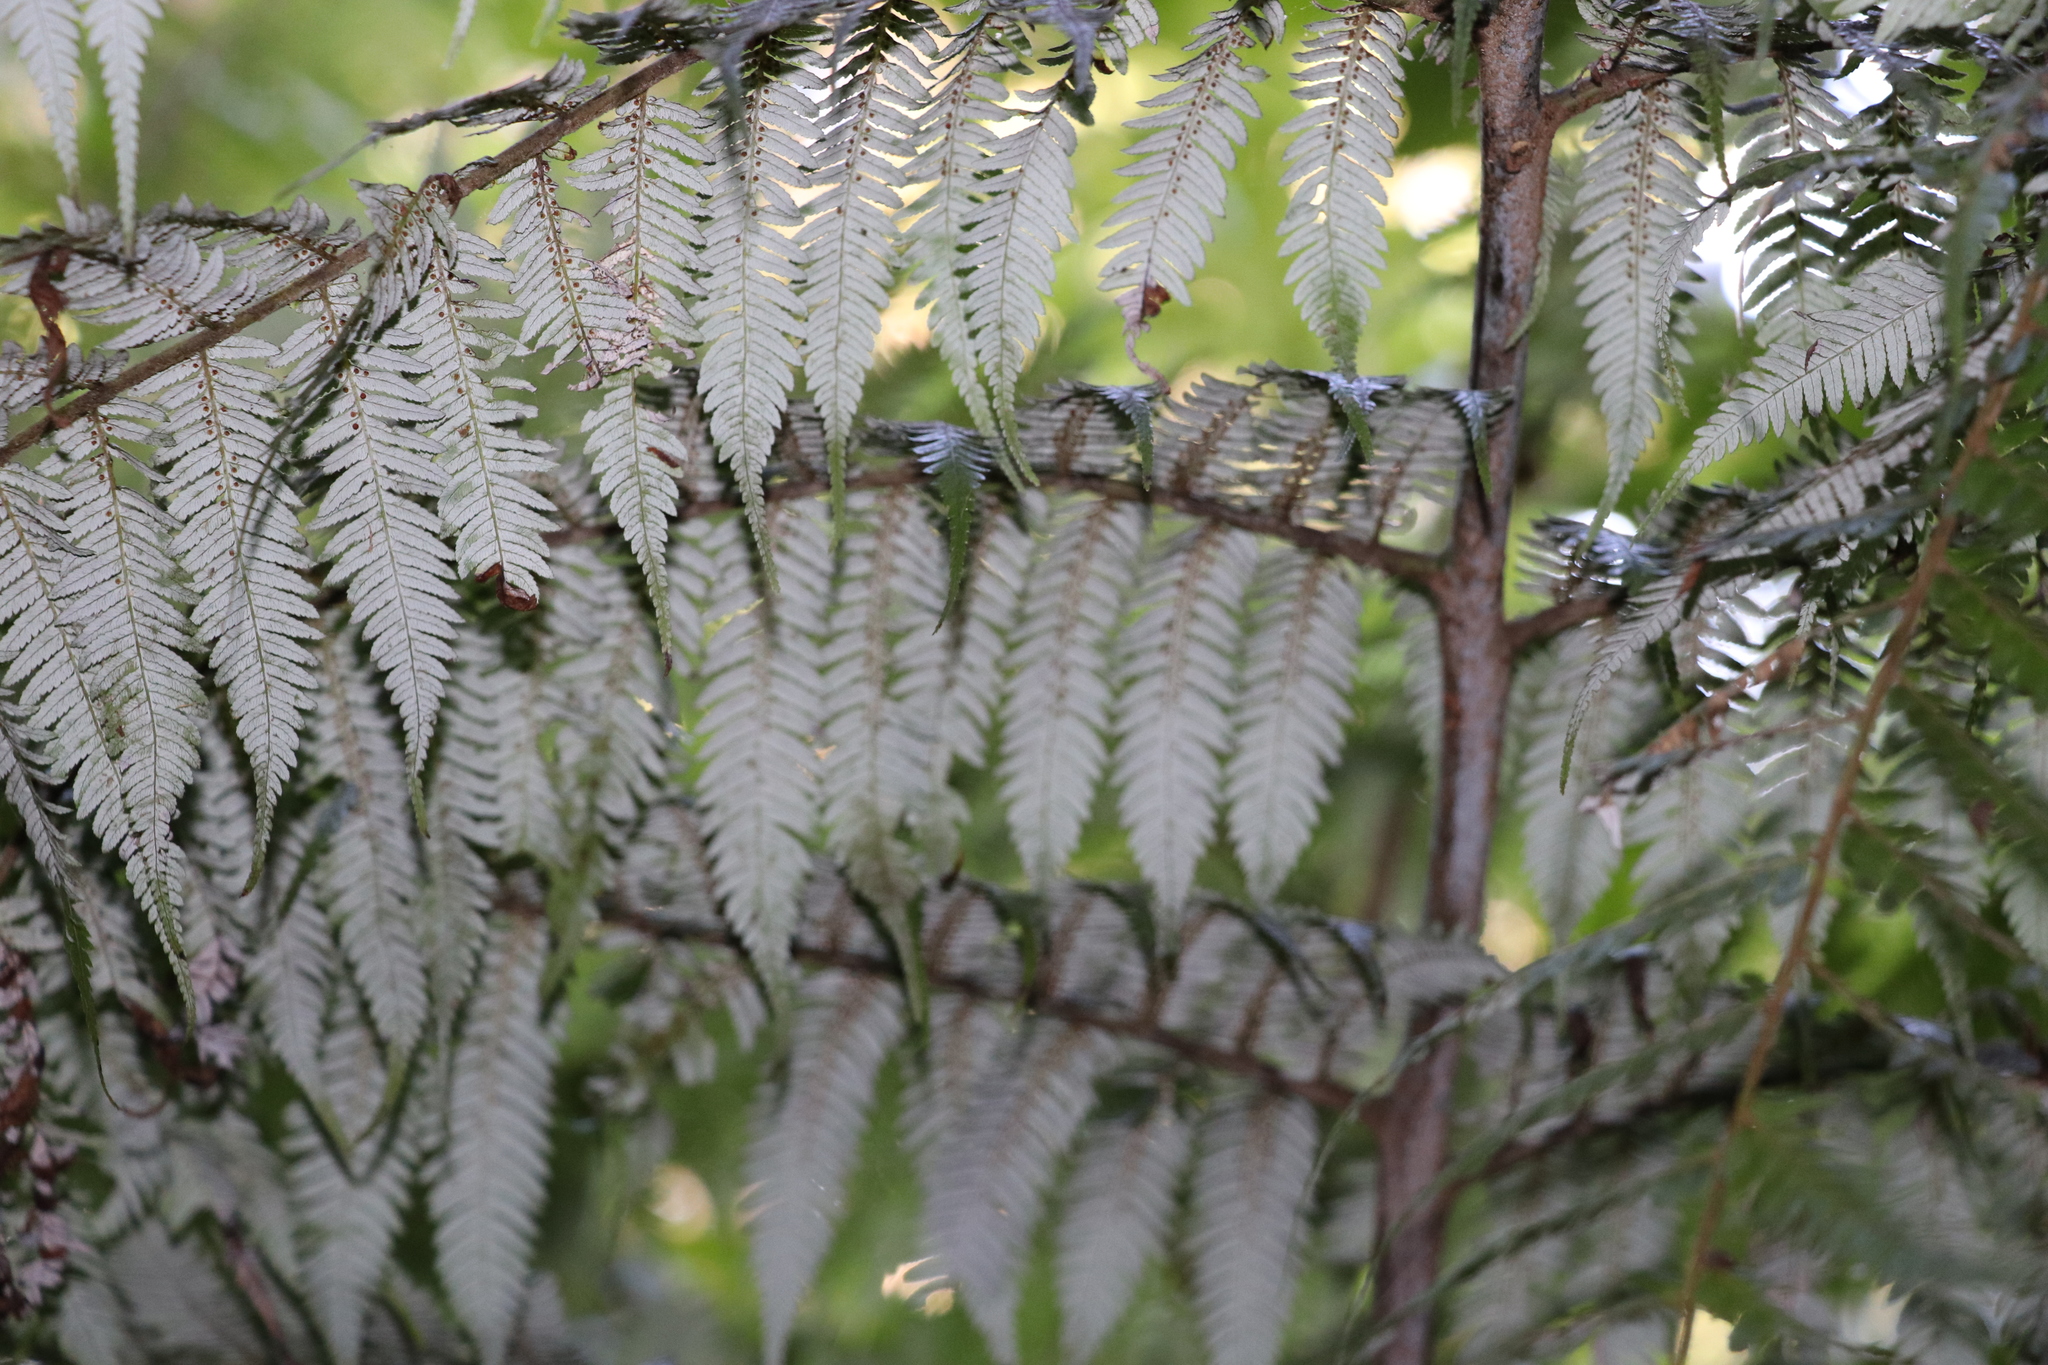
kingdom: Plantae
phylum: Tracheophyta
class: Polypodiopsida
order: Cyatheales
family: Cyatheaceae
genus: Alsophila
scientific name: Alsophila dealbata
